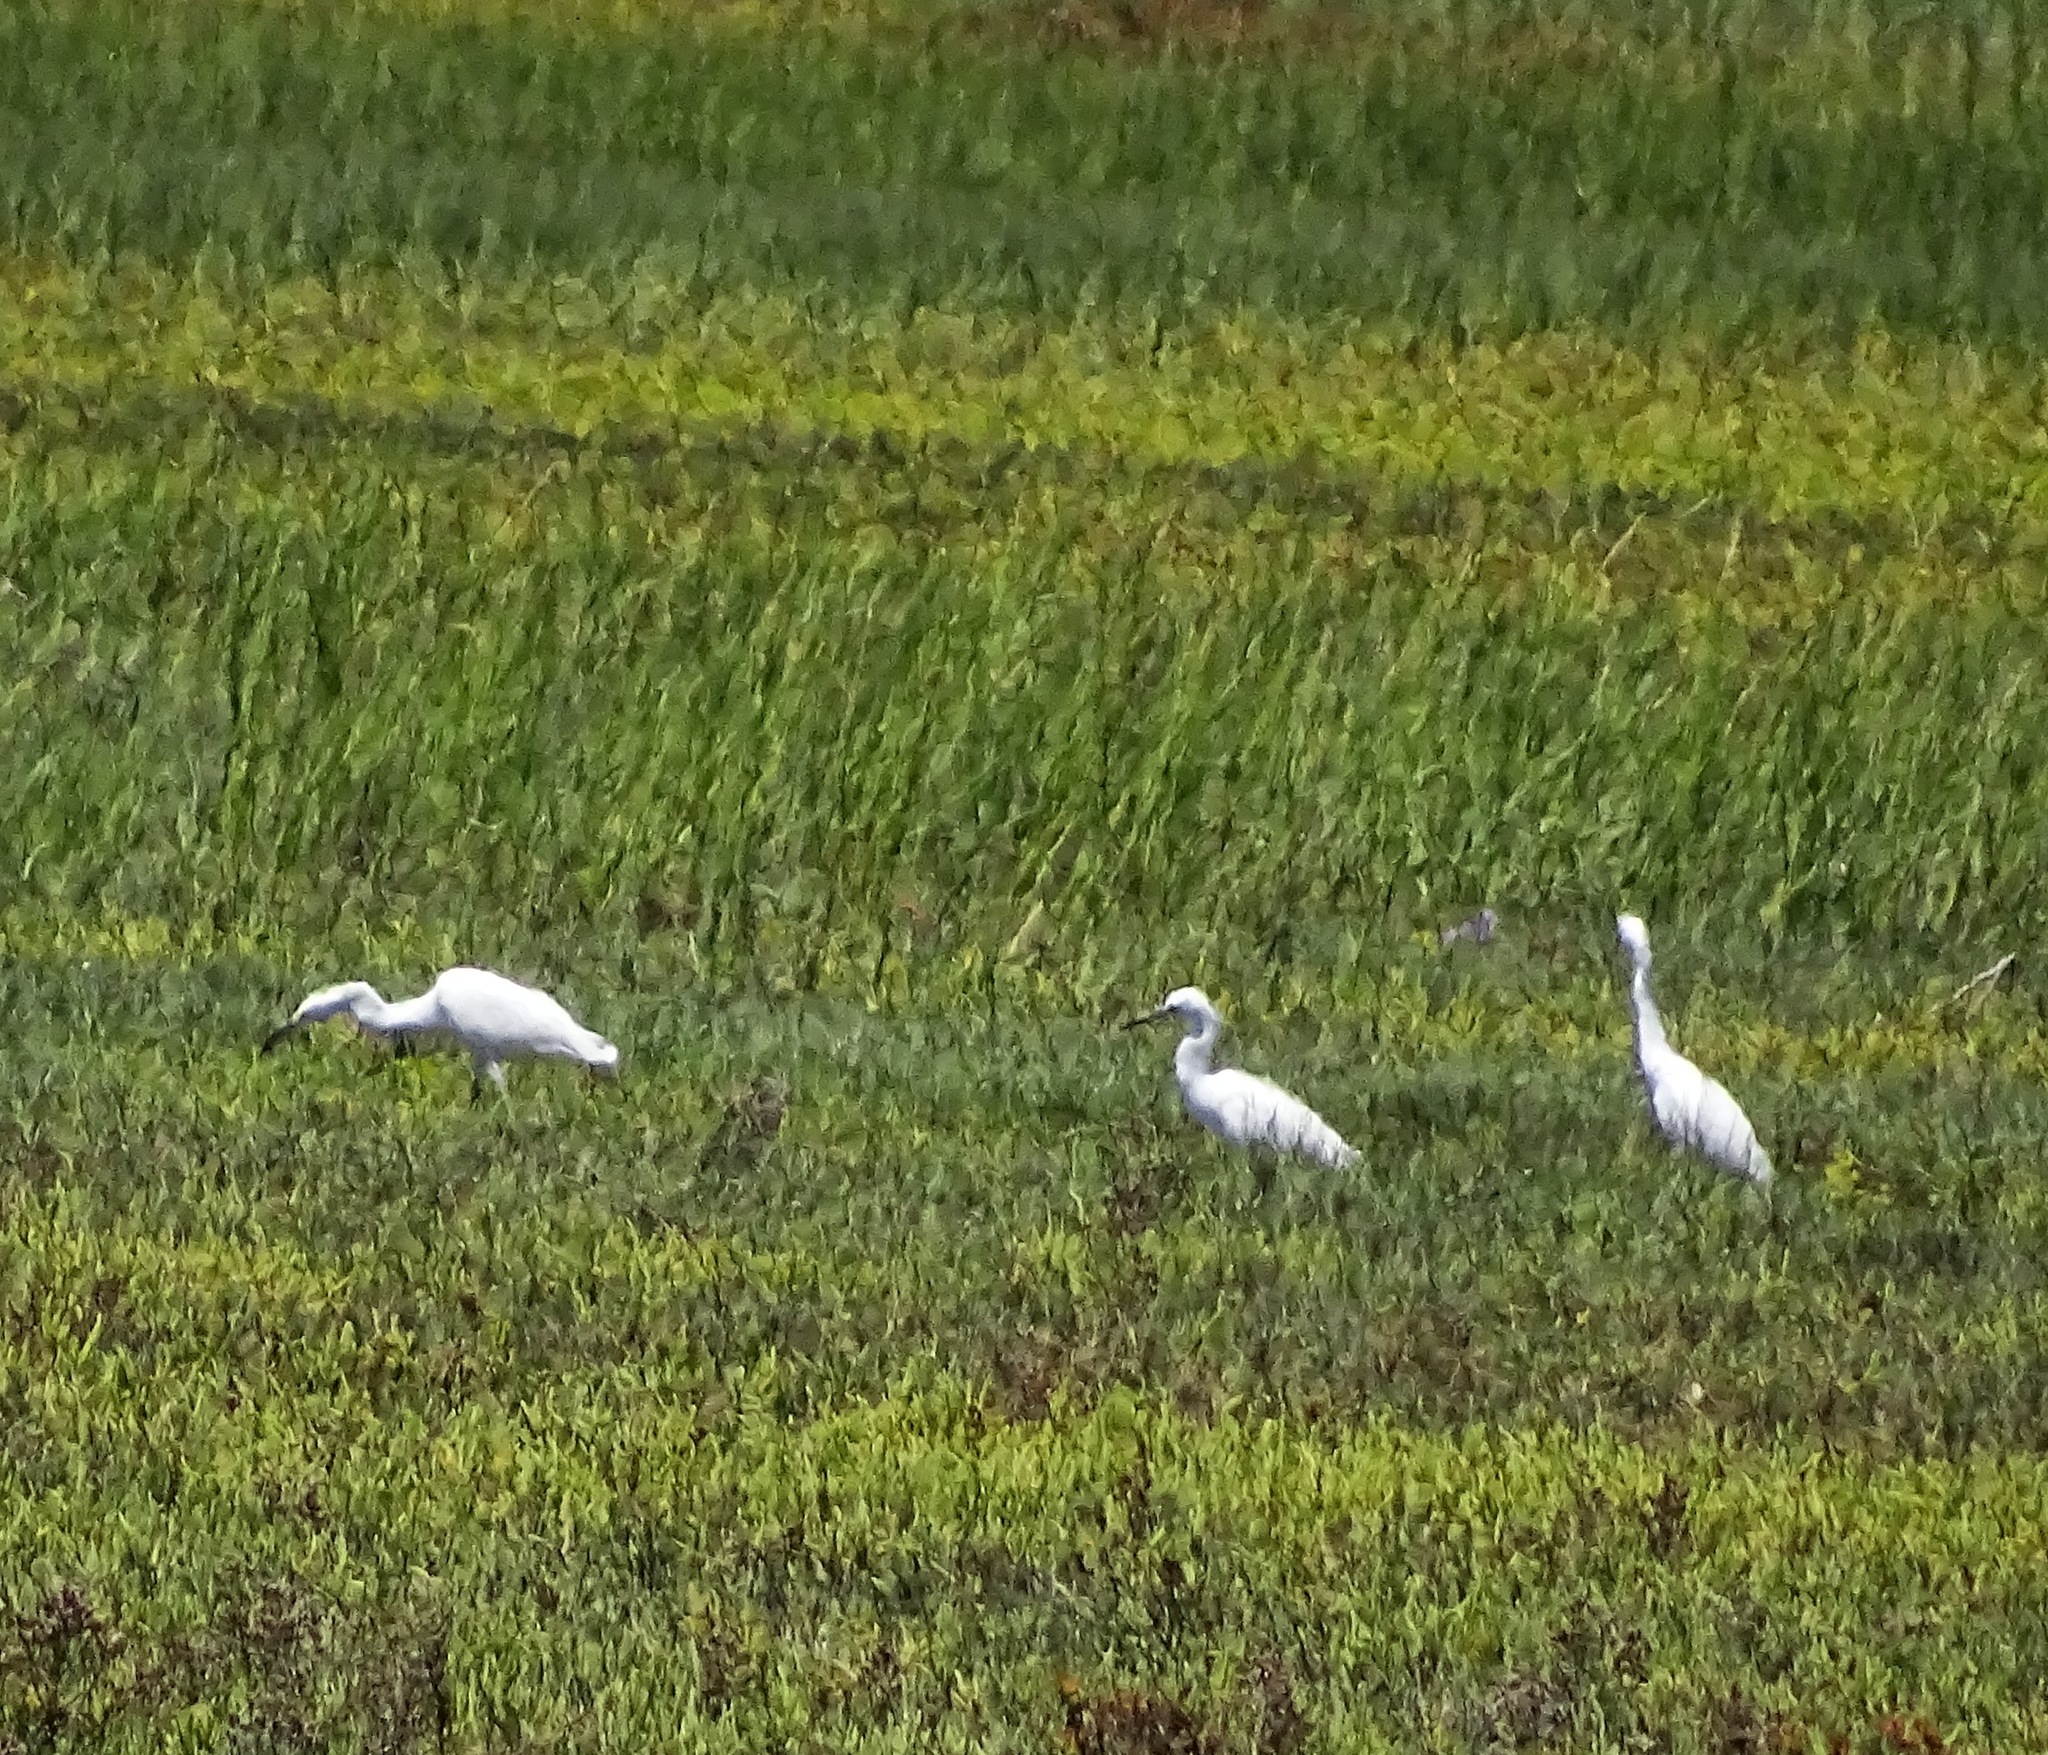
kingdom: Animalia
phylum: Chordata
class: Aves
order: Pelecaniformes
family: Ardeidae
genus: Egretta
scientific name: Egretta thula
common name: Snowy egret
